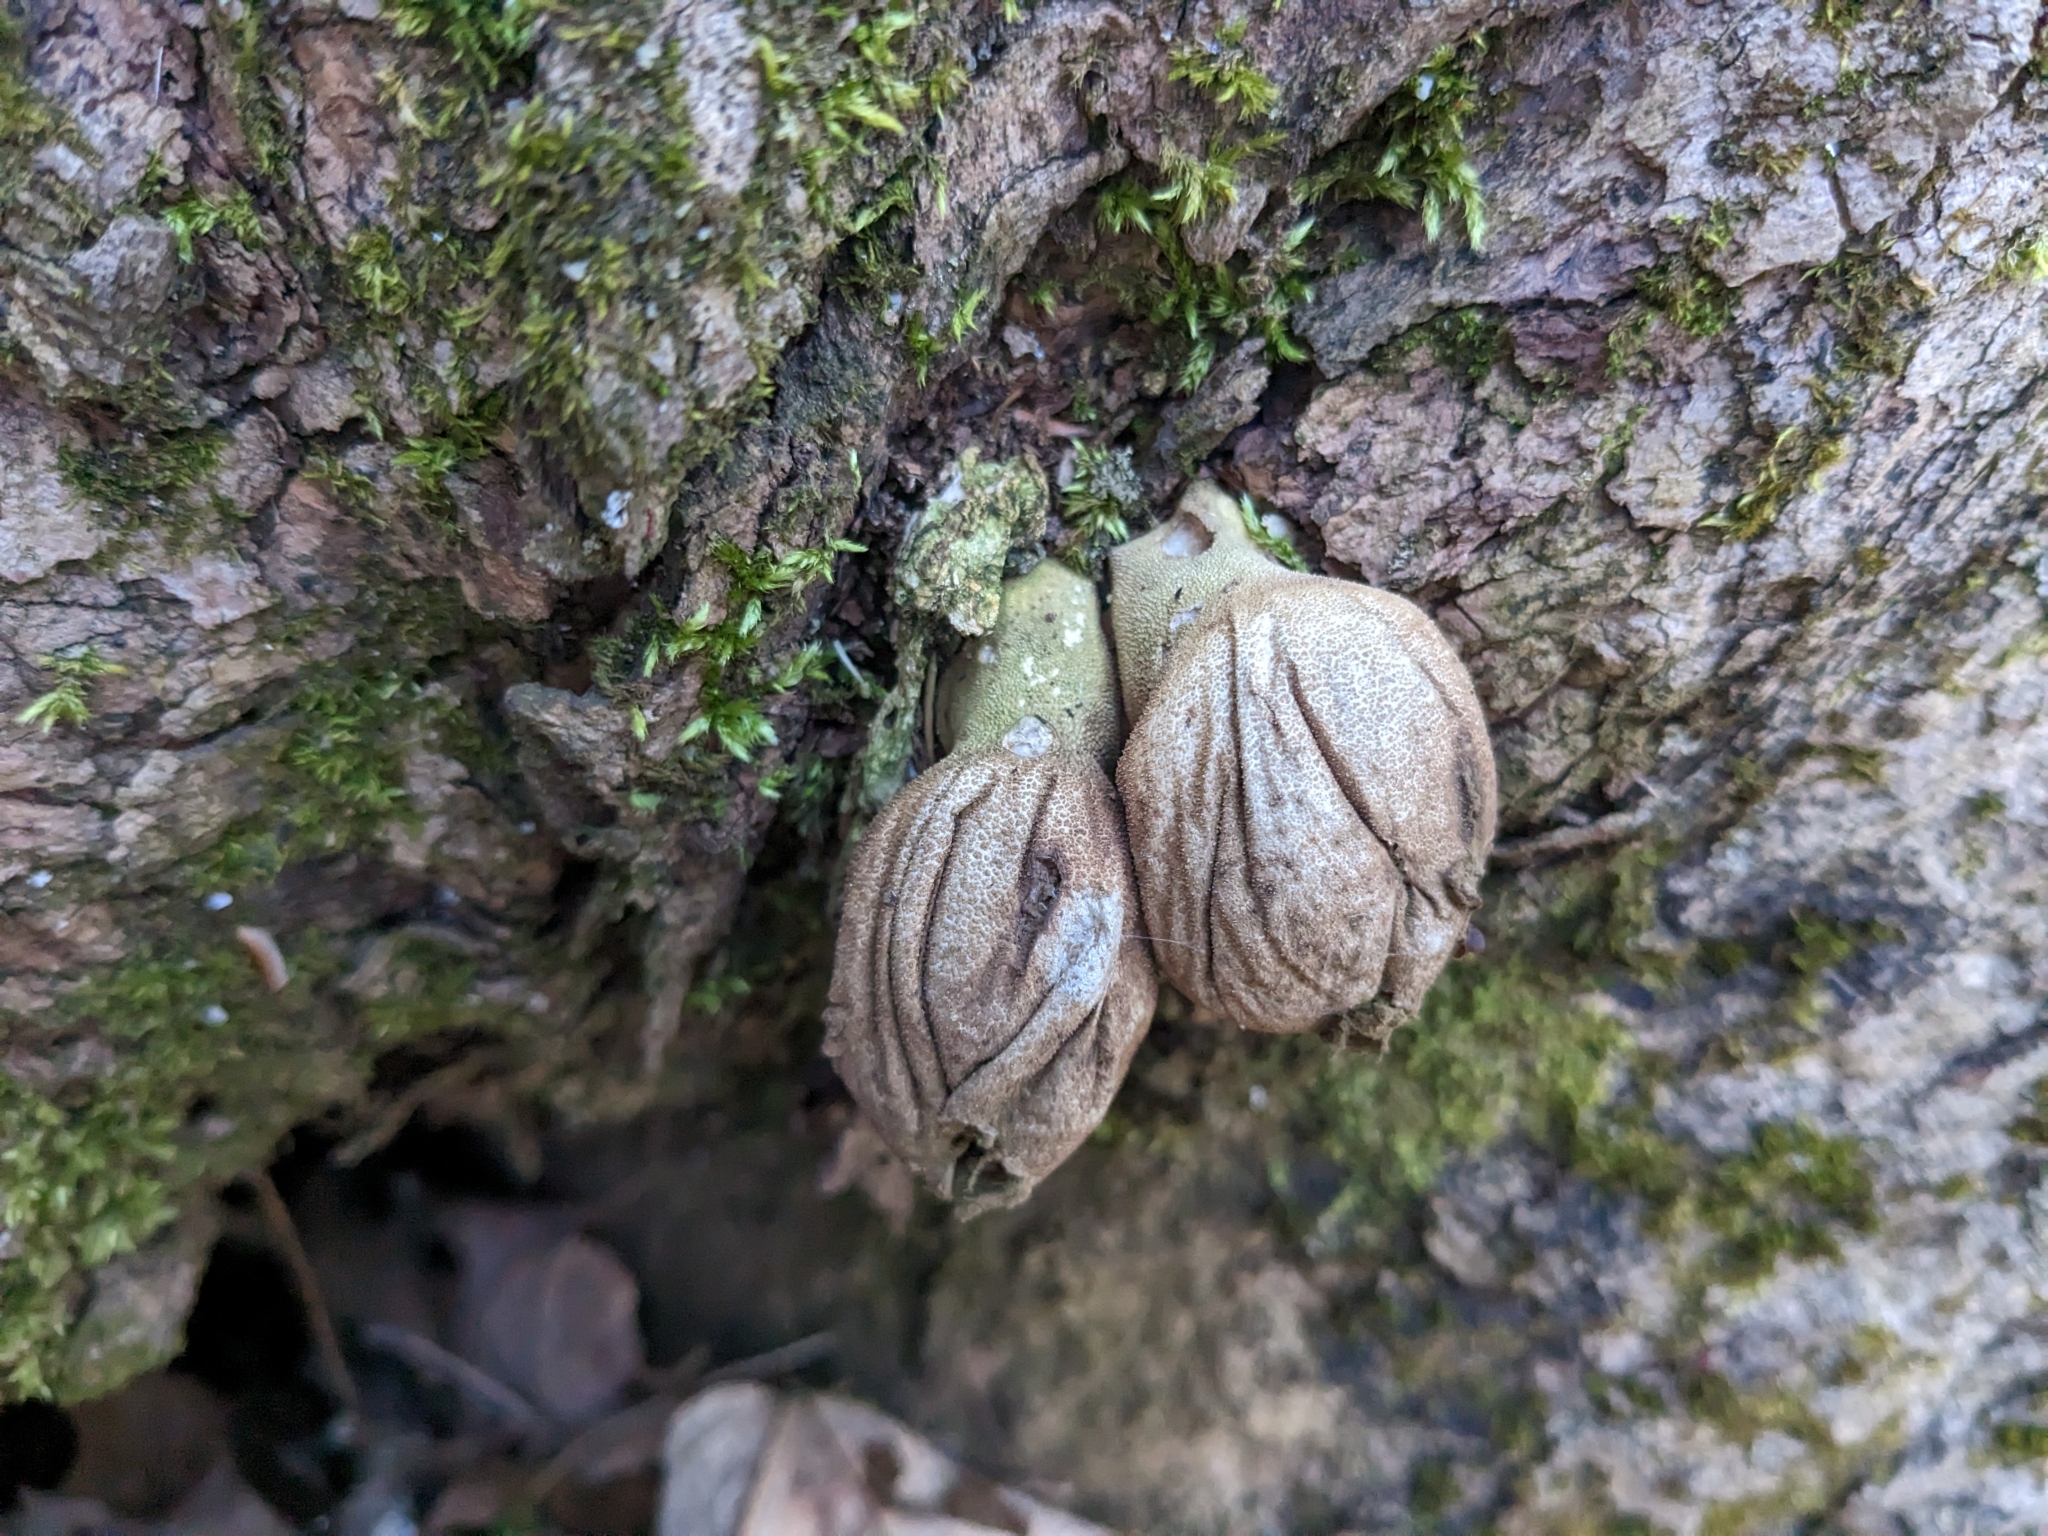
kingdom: Fungi
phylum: Basidiomycota
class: Agaricomycetes
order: Agaricales
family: Lycoperdaceae
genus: Apioperdon
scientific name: Apioperdon pyriforme
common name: Pear-shaped puffball
